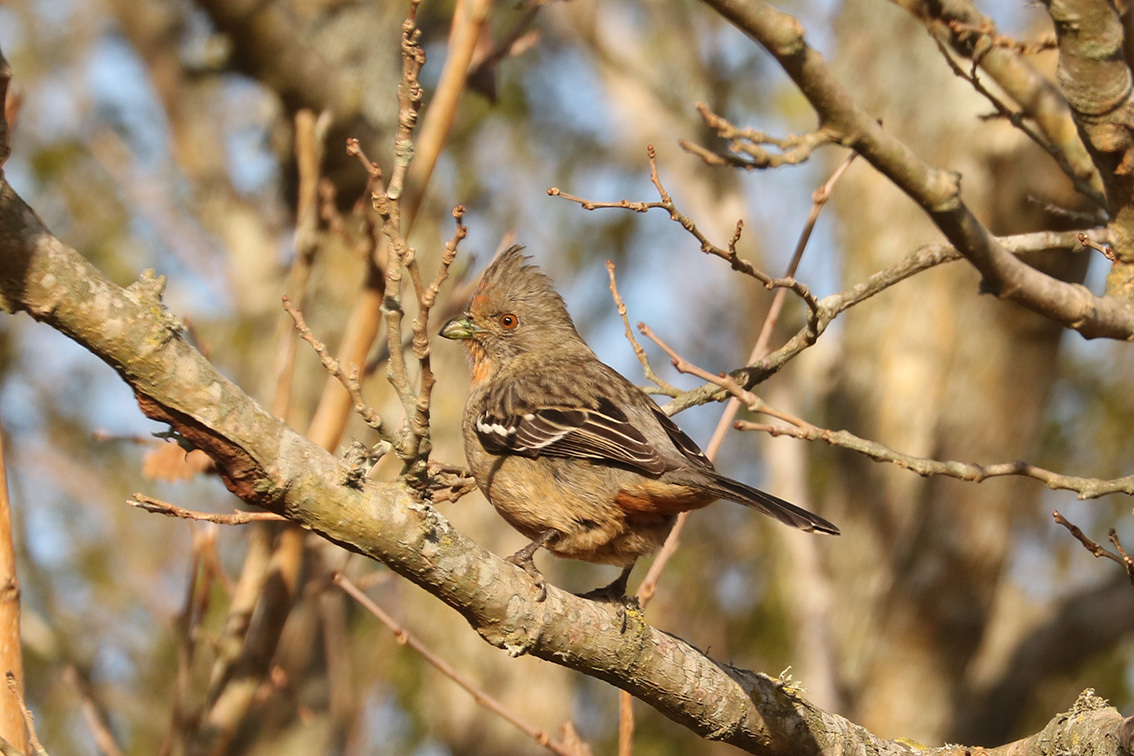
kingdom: Animalia
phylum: Chordata
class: Aves
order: Passeriformes
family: Cotingidae
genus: Phytotoma
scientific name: Phytotoma rutila
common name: White-tipped plantcutter
